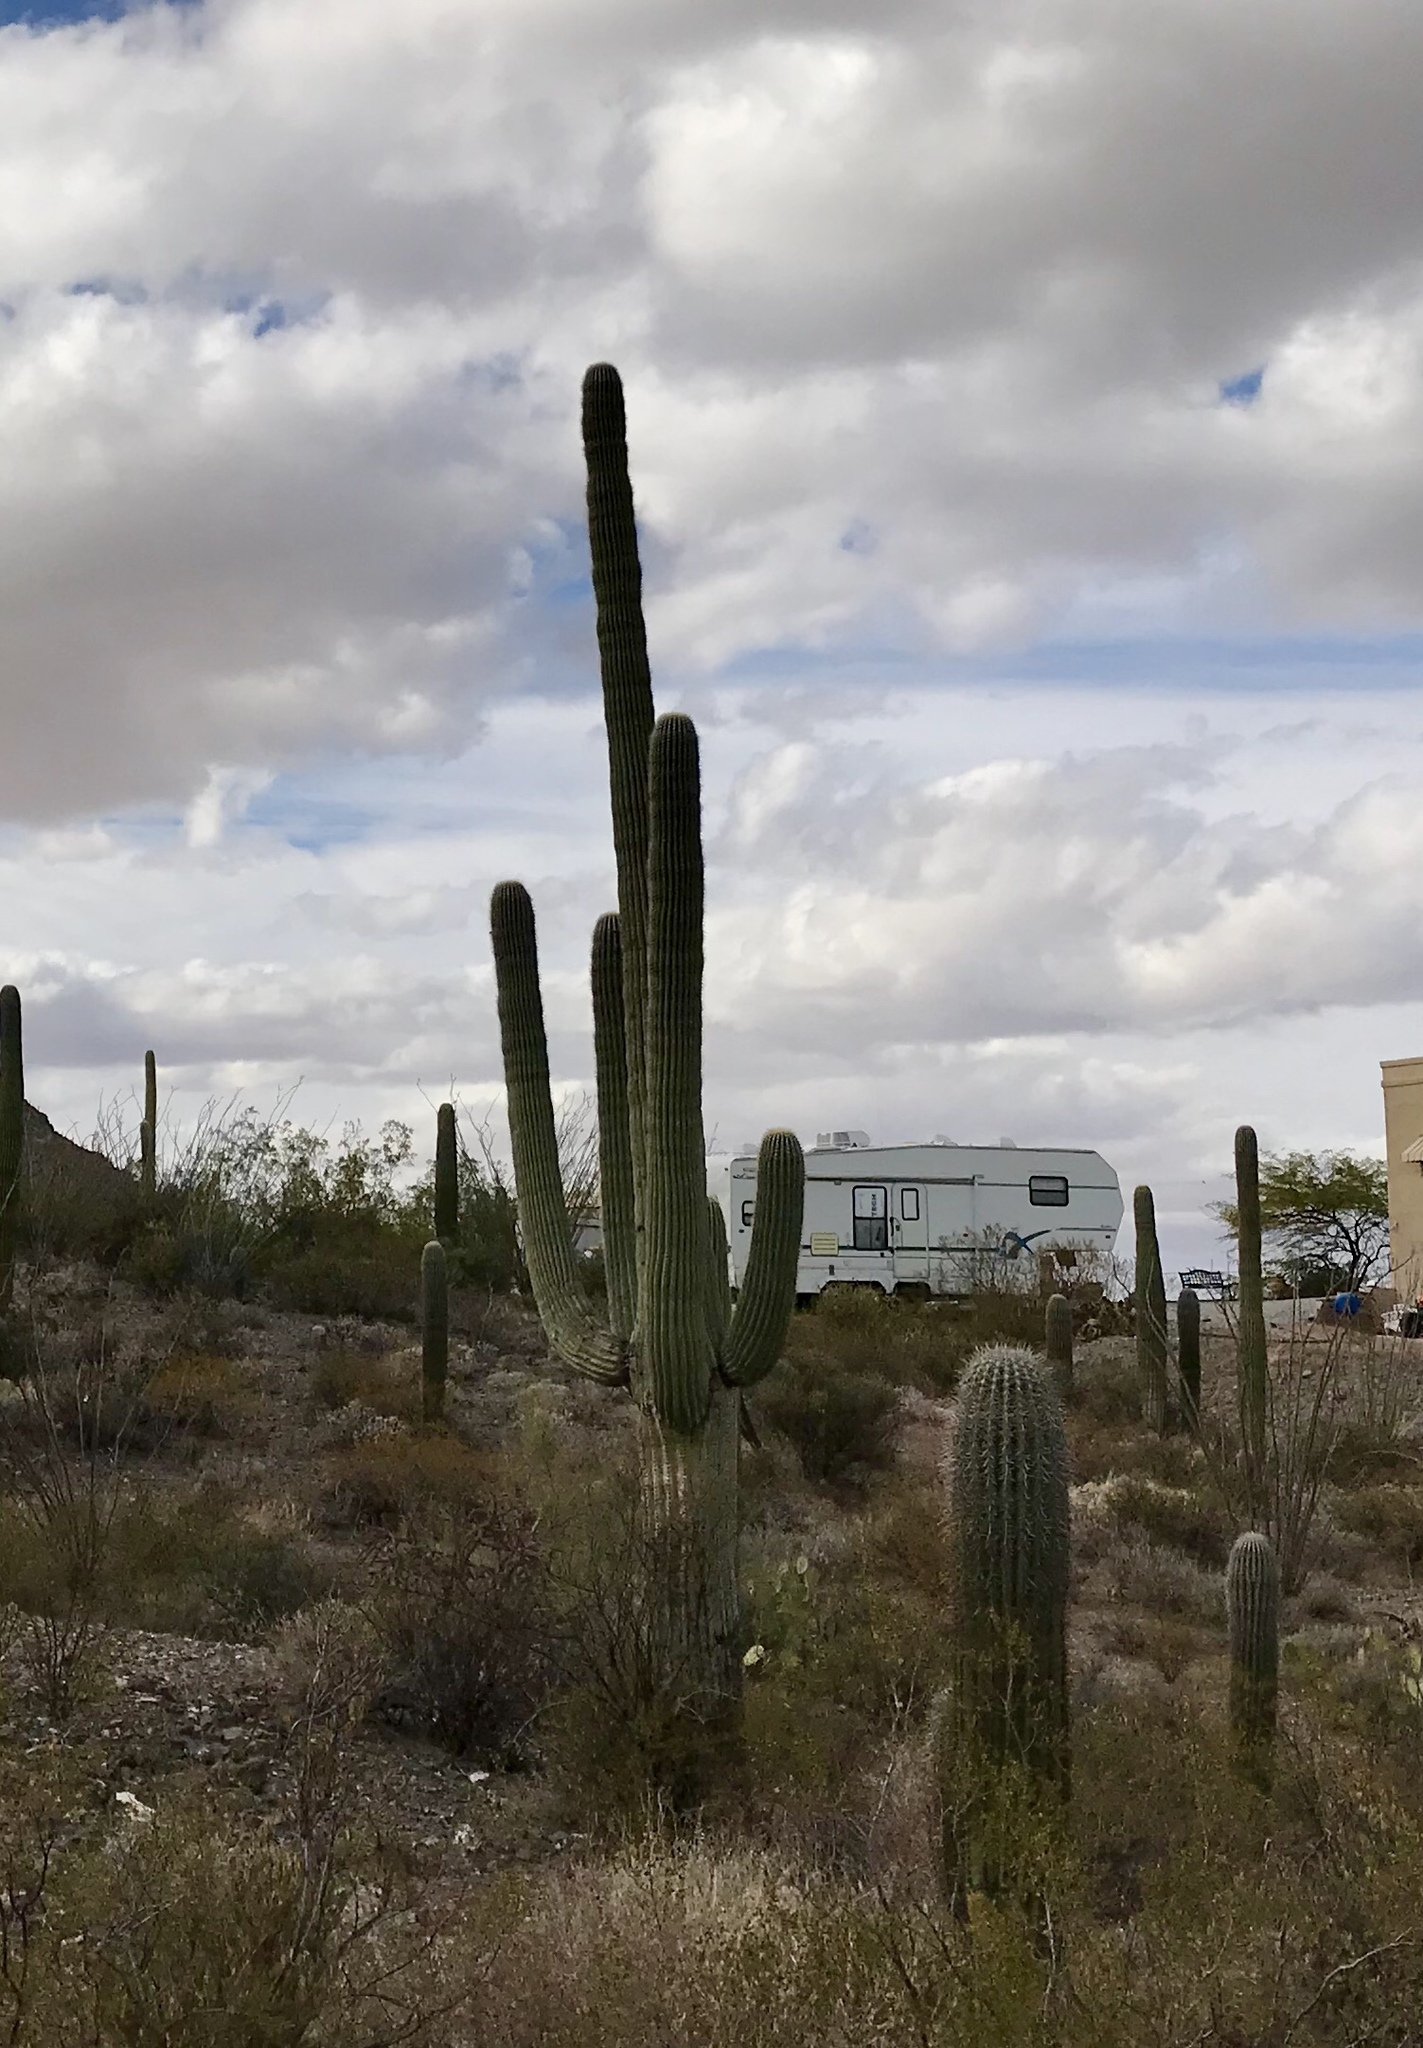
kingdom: Plantae
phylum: Tracheophyta
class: Magnoliopsida
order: Caryophyllales
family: Cactaceae
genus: Carnegiea
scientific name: Carnegiea gigantea
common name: Saguaro
